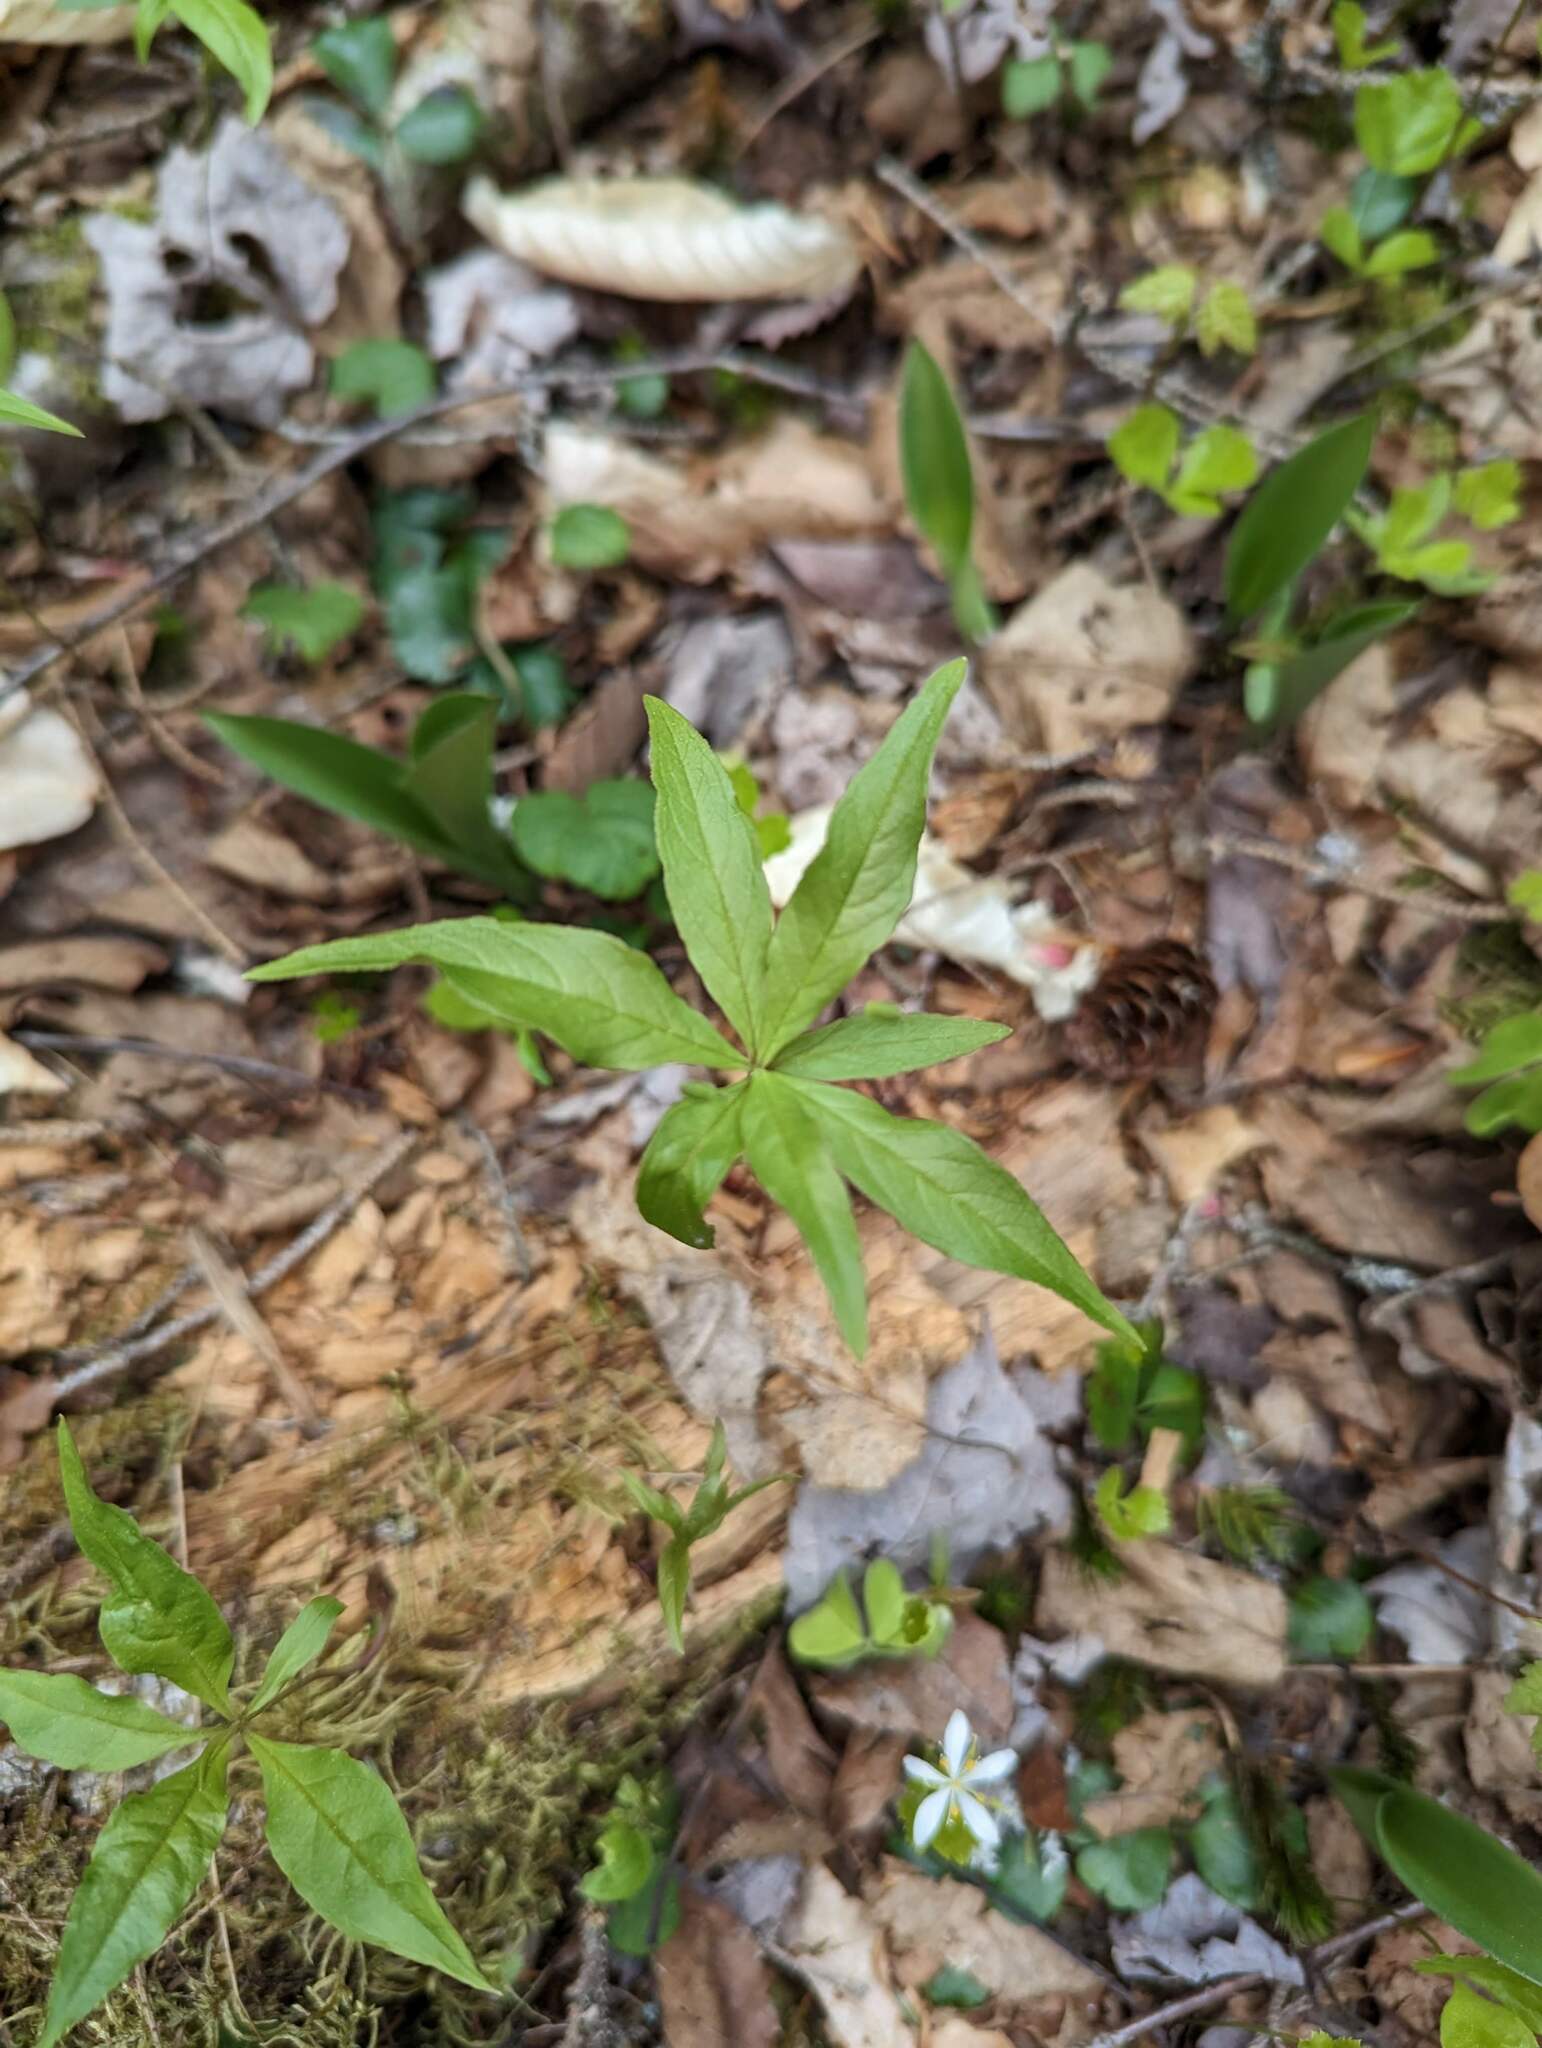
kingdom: Plantae
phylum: Tracheophyta
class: Magnoliopsida
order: Ericales
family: Primulaceae
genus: Lysimachia
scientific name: Lysimachia borealis
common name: American starflower
